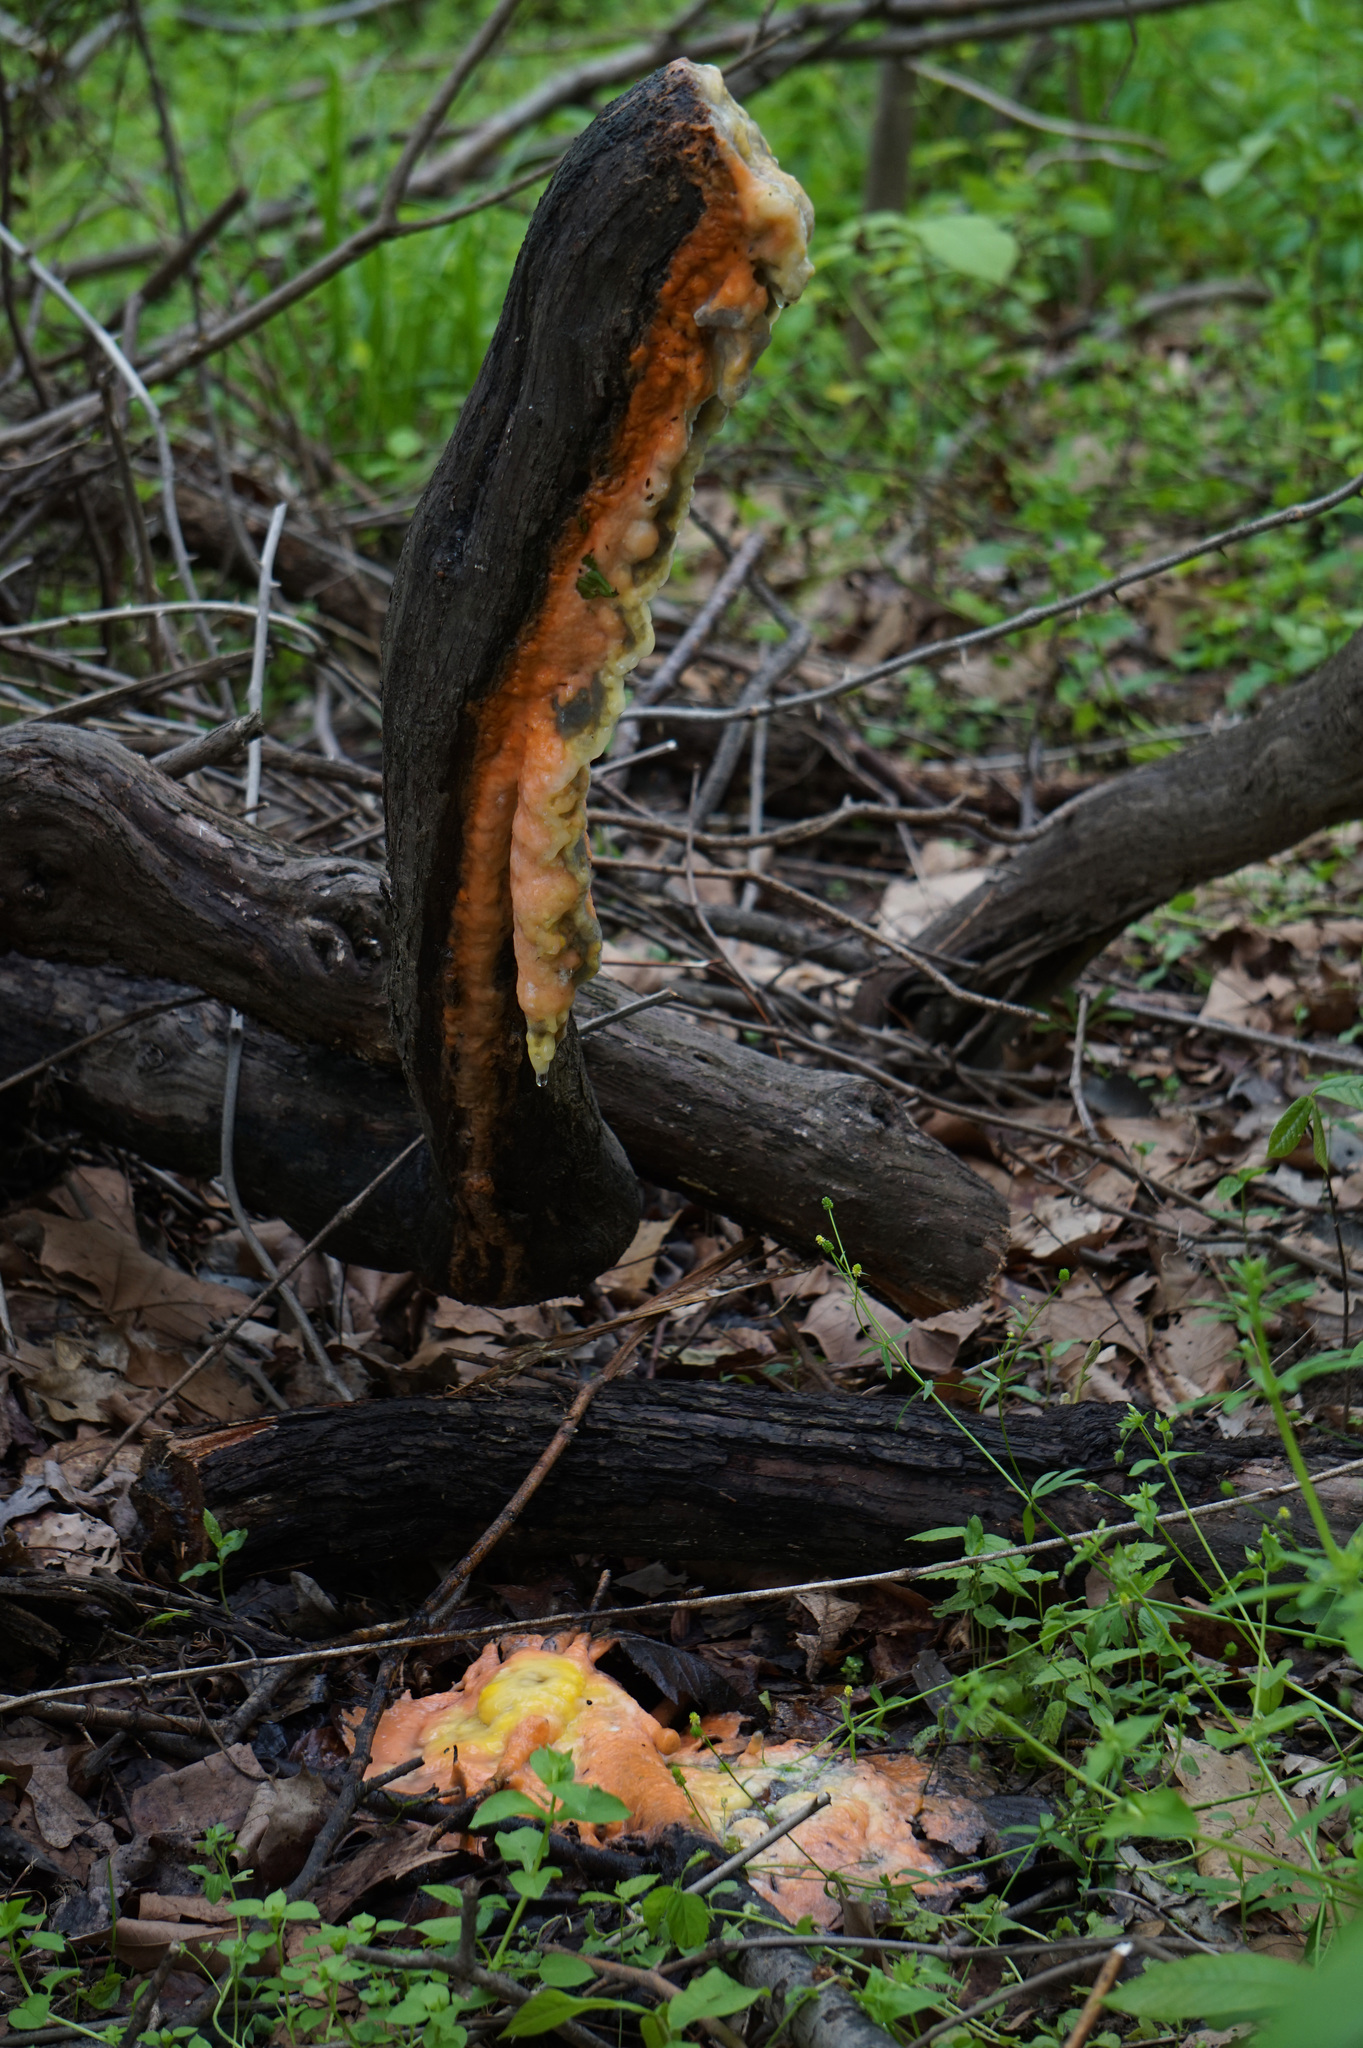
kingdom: Fungi
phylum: Ascomycota
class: Sordariomycetes
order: Hypocreales
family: Nectriaceae
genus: Fusicolla
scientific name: Fusicolla merismoides
